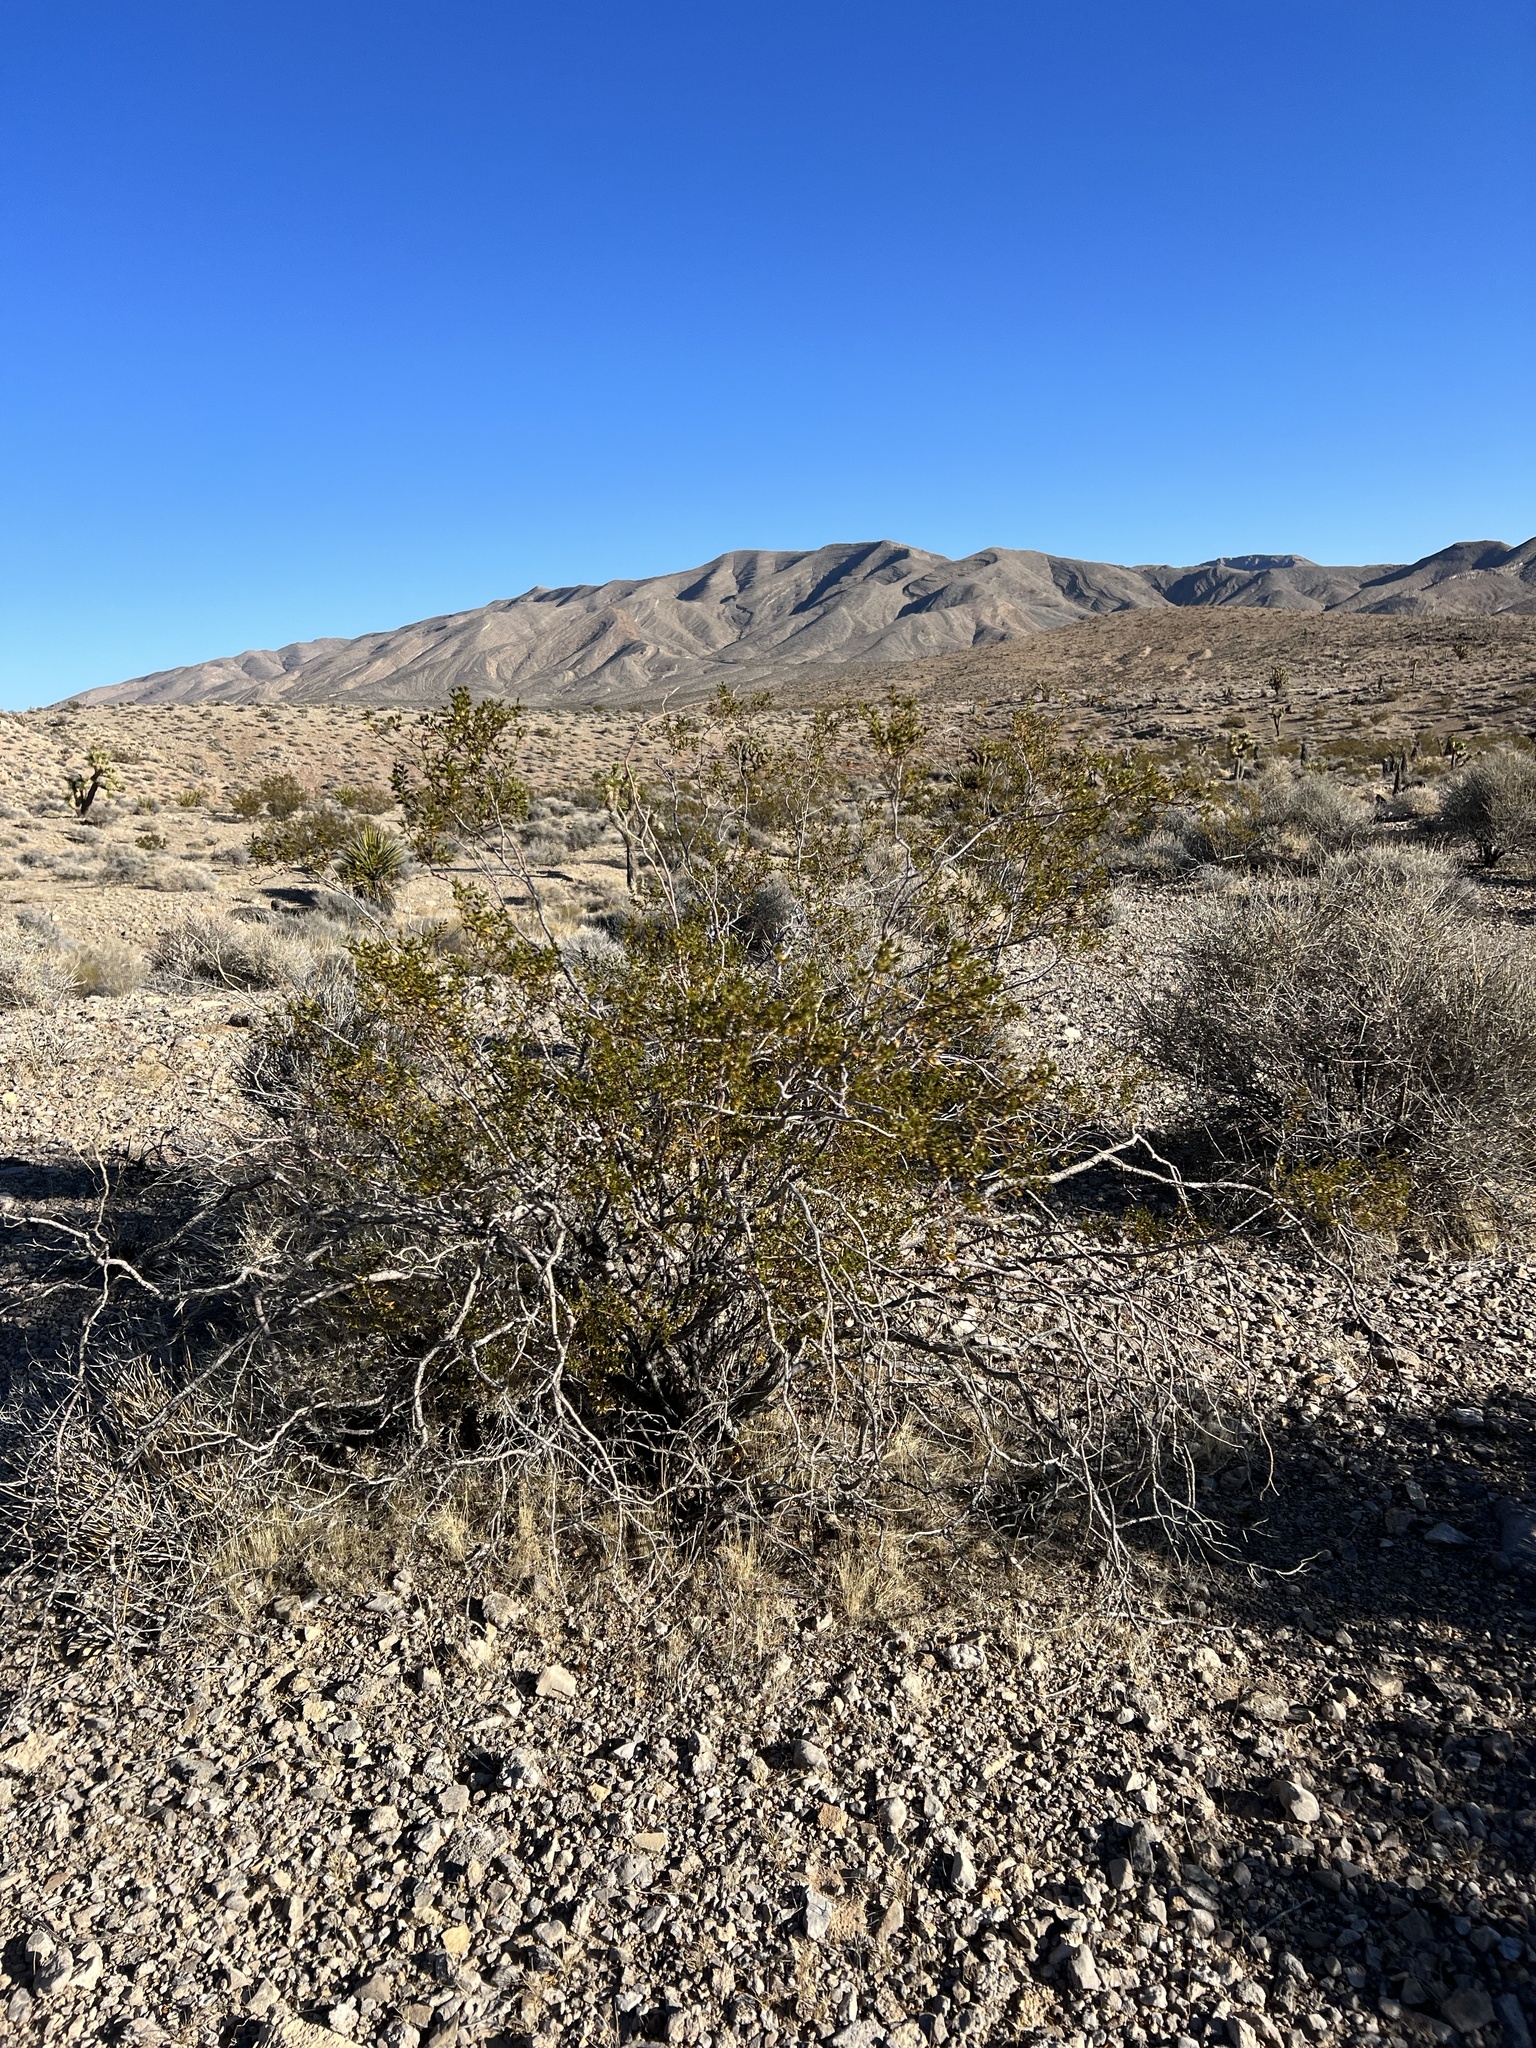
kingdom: Plantae
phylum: Tracheophyta
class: Magnoliopsida
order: Zygophyllales
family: Zygophyllaceae
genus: Larrea
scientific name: Larrea tridentata
